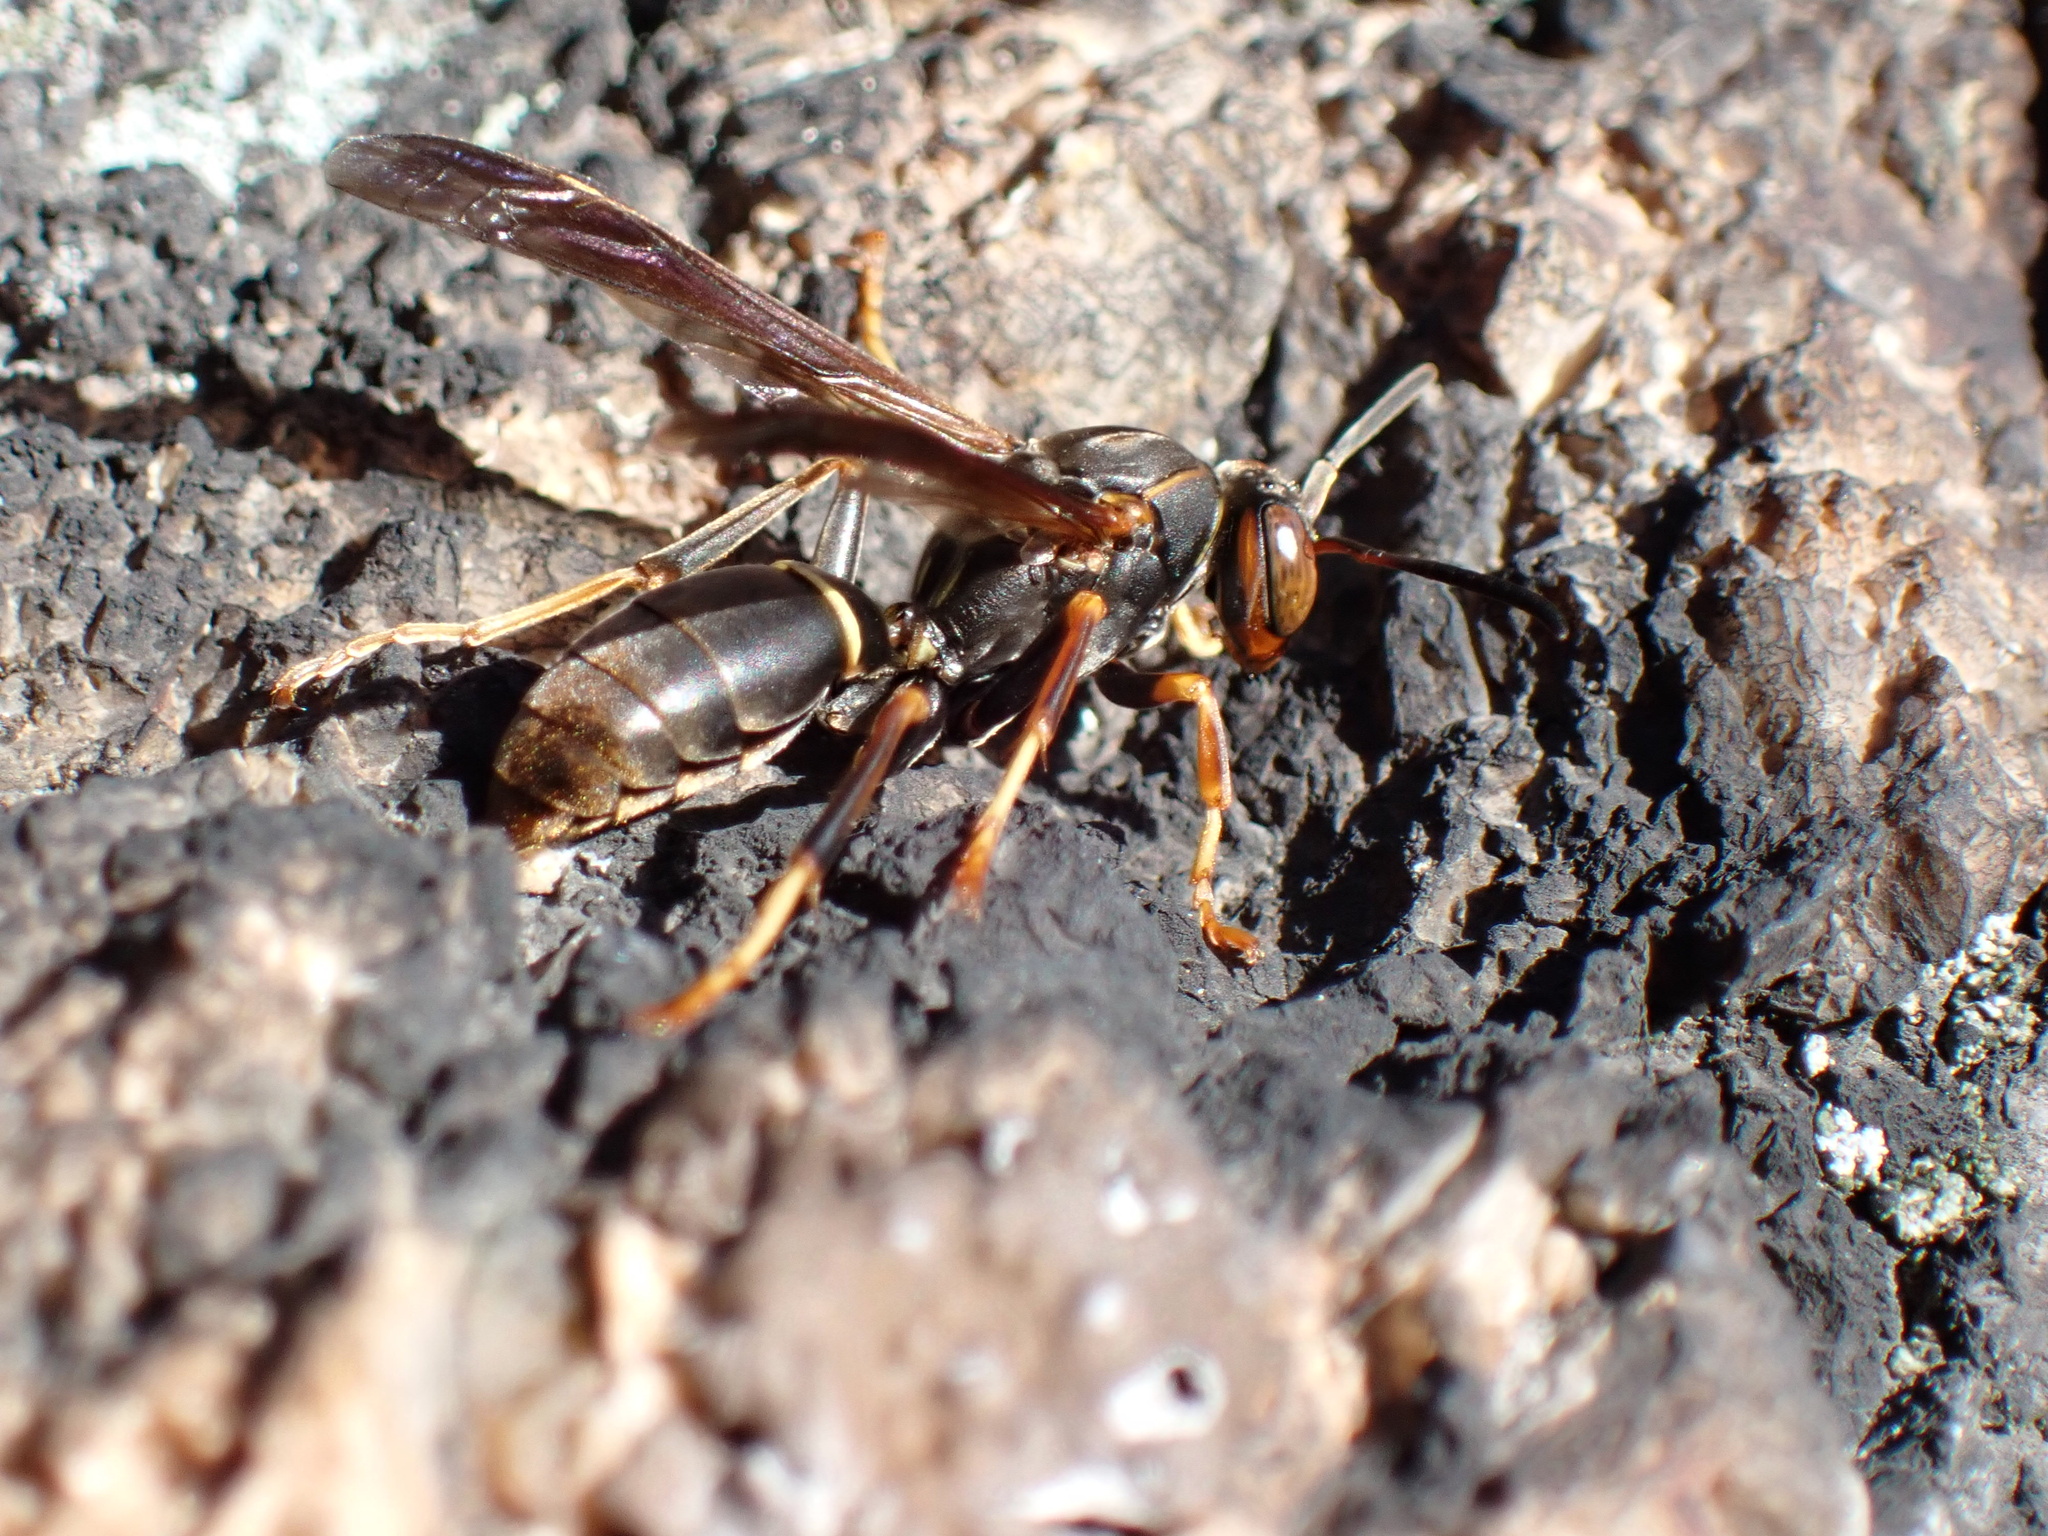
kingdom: Animalia
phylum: Arthropoda
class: Insecta
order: Hymenoptera
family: Eumenidae
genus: Polistes
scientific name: Polistes fuscatus
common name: Dark paper wasp
